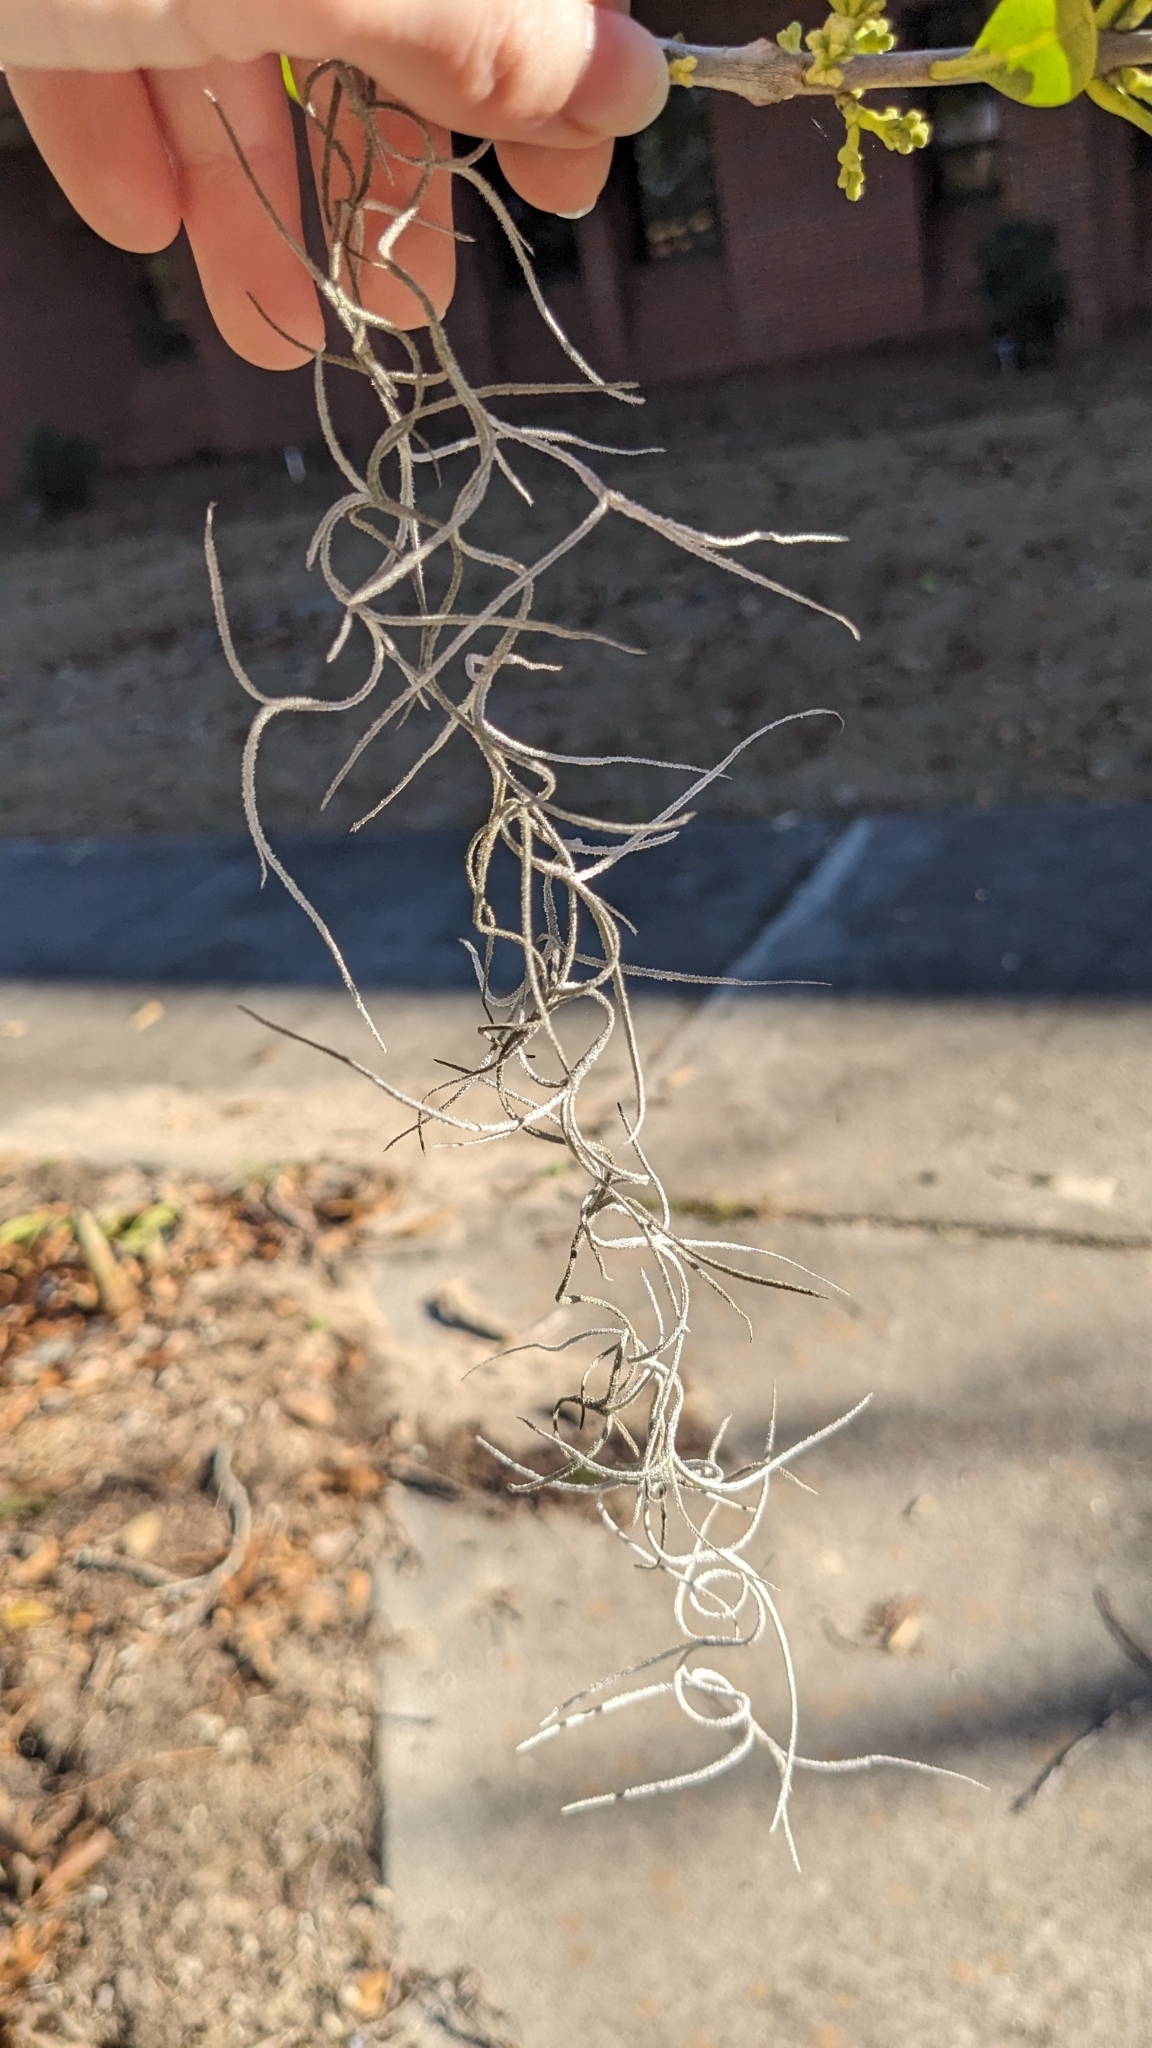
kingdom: Plantae
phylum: Tracheophyta
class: Liliopsida
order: Poales
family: Bromeliaceae
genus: Tillandsia
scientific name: Tillandsia usneoides
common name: Spanish moss
